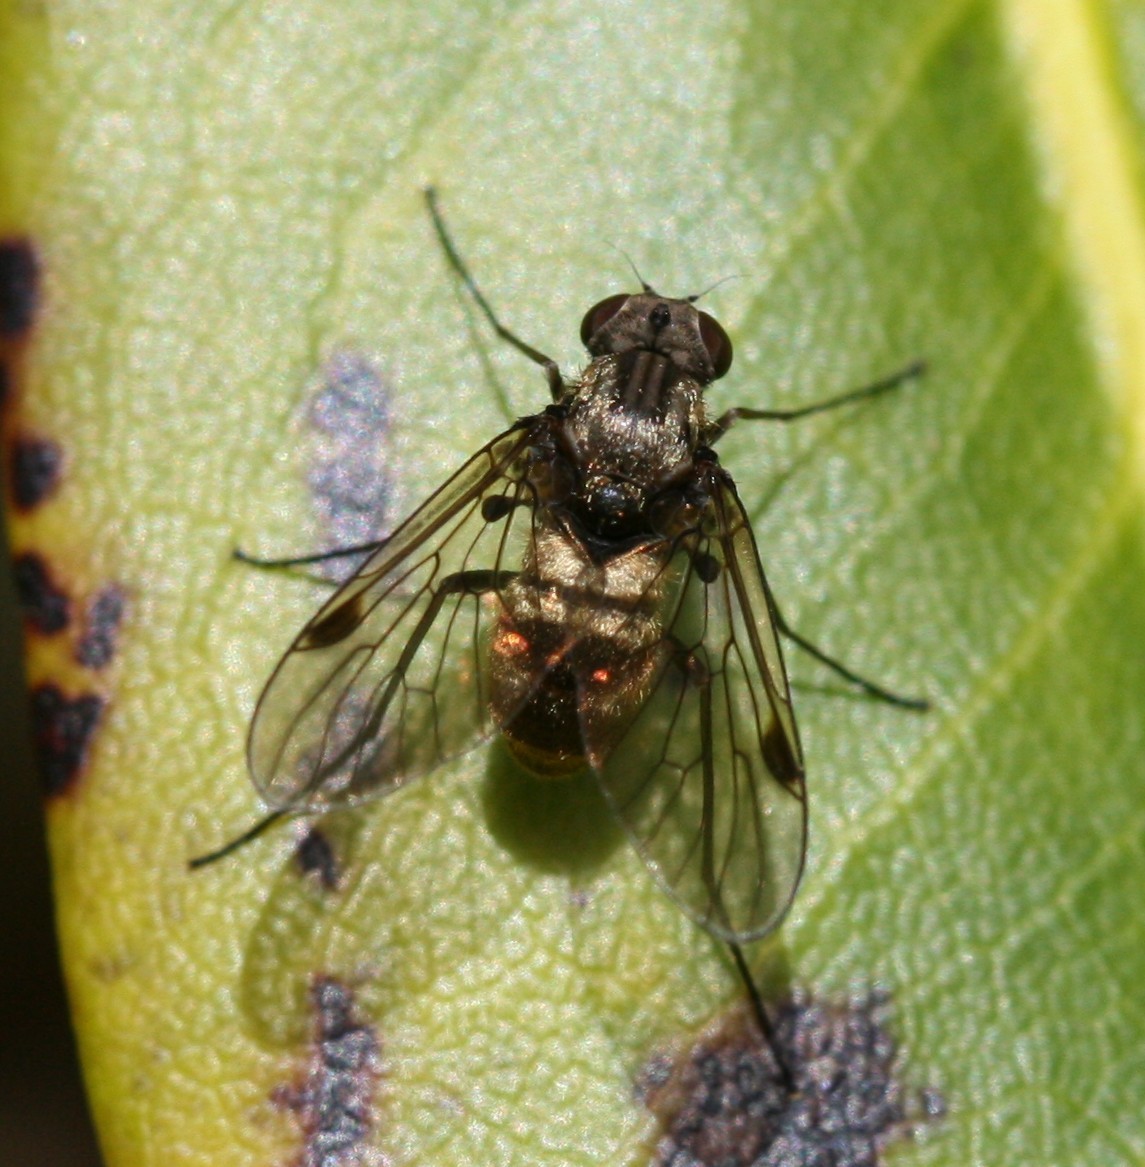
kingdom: Animalia
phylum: Arthropoda
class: Insecta
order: Diptera
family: Rhagionidae
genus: Chrysopilus
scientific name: Chrysopilus cristatus
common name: Black snipefly
